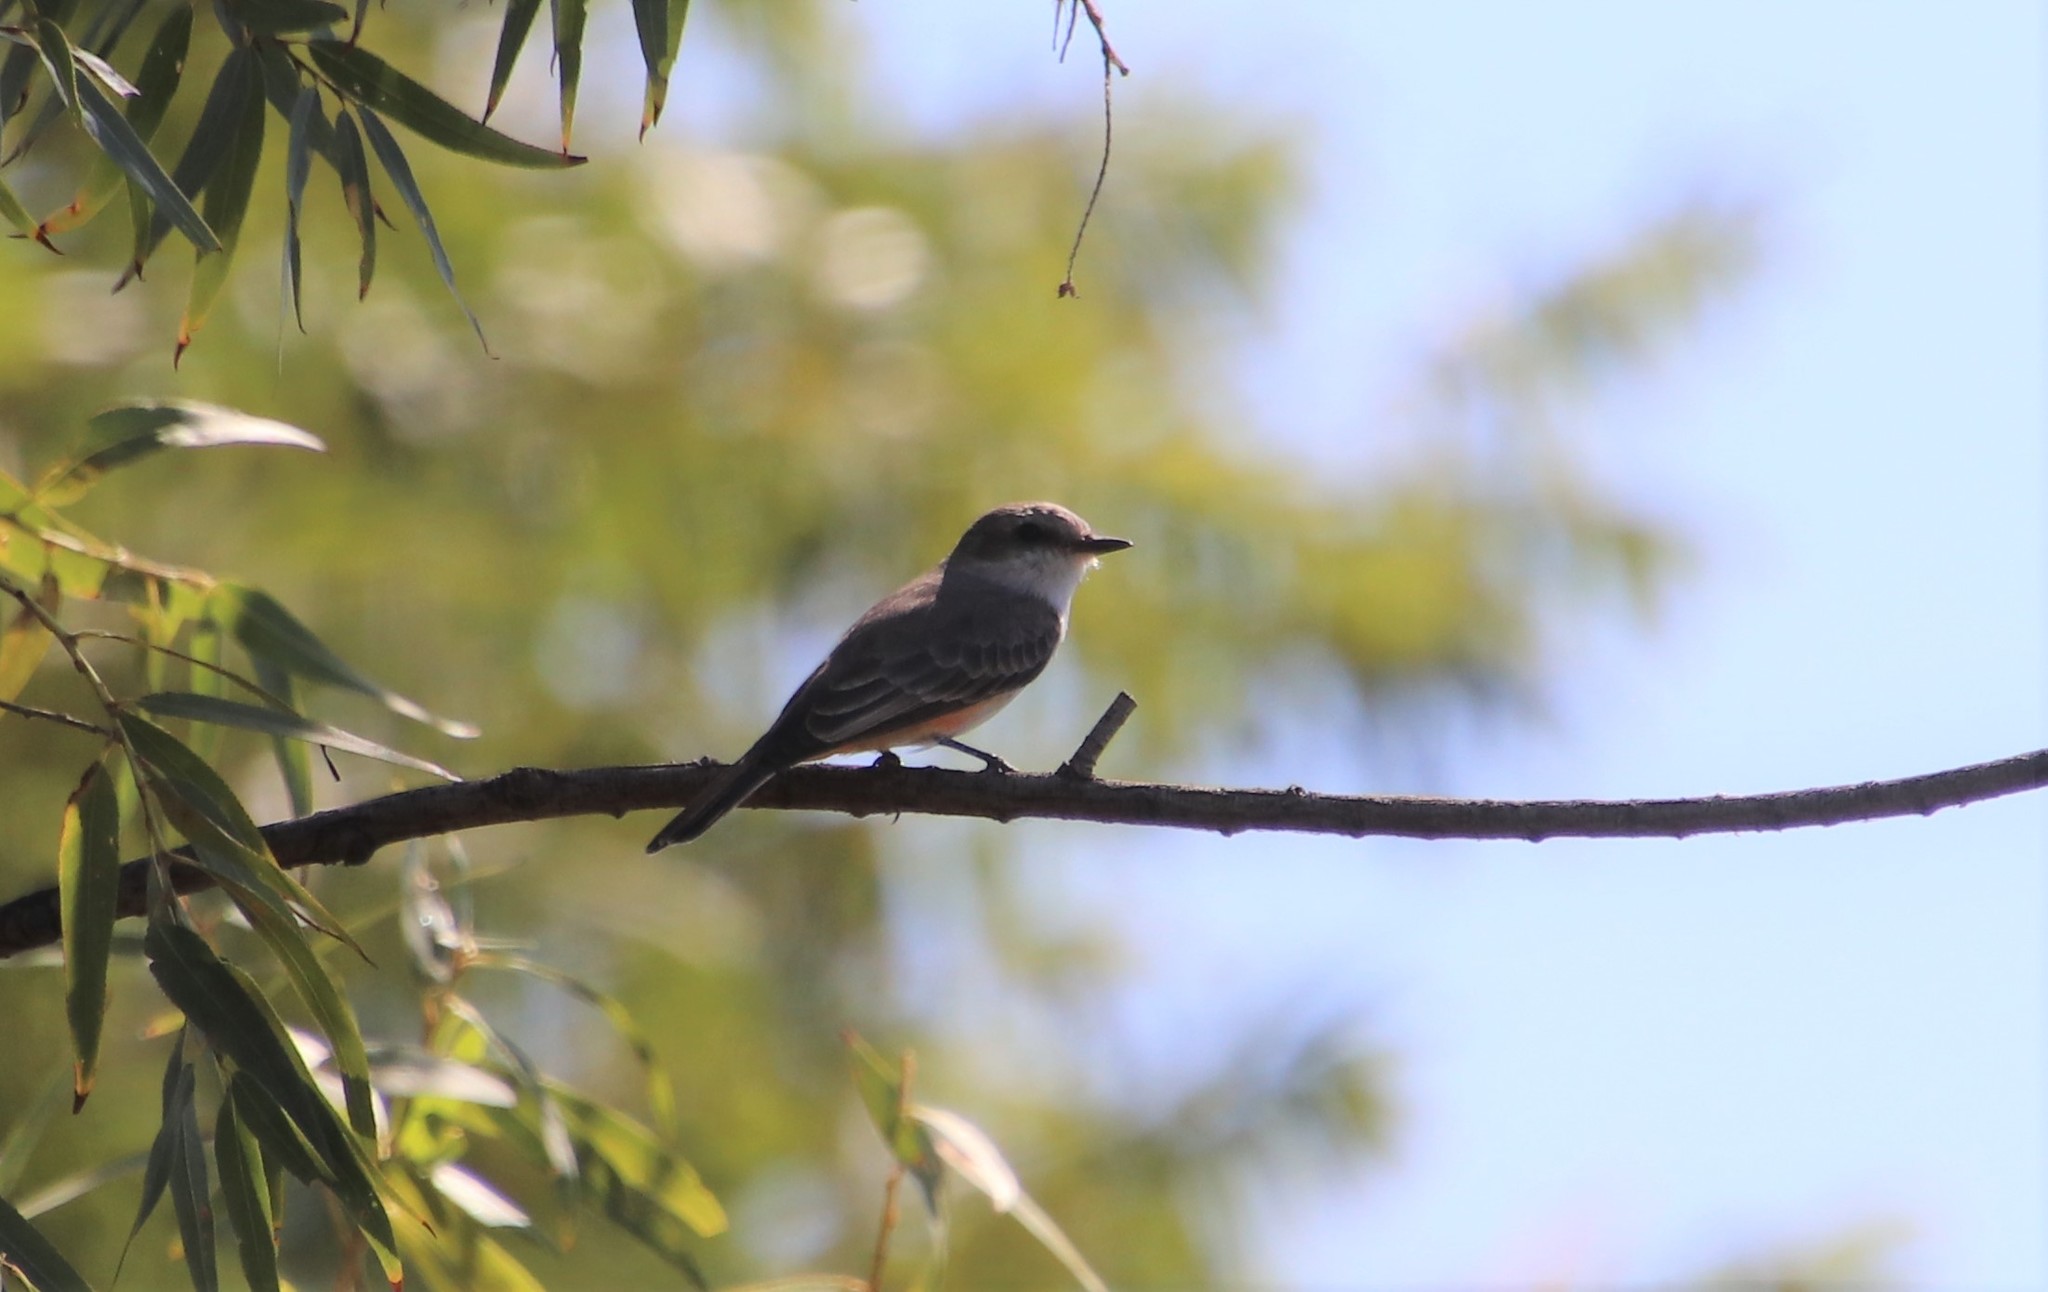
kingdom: Animalia
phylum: Chordata
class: Aves
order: Passeriformes
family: Tyrannidae
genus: Pyrocephalus
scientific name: Pyrocephalus rubinus
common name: Vermilion flycatcher
